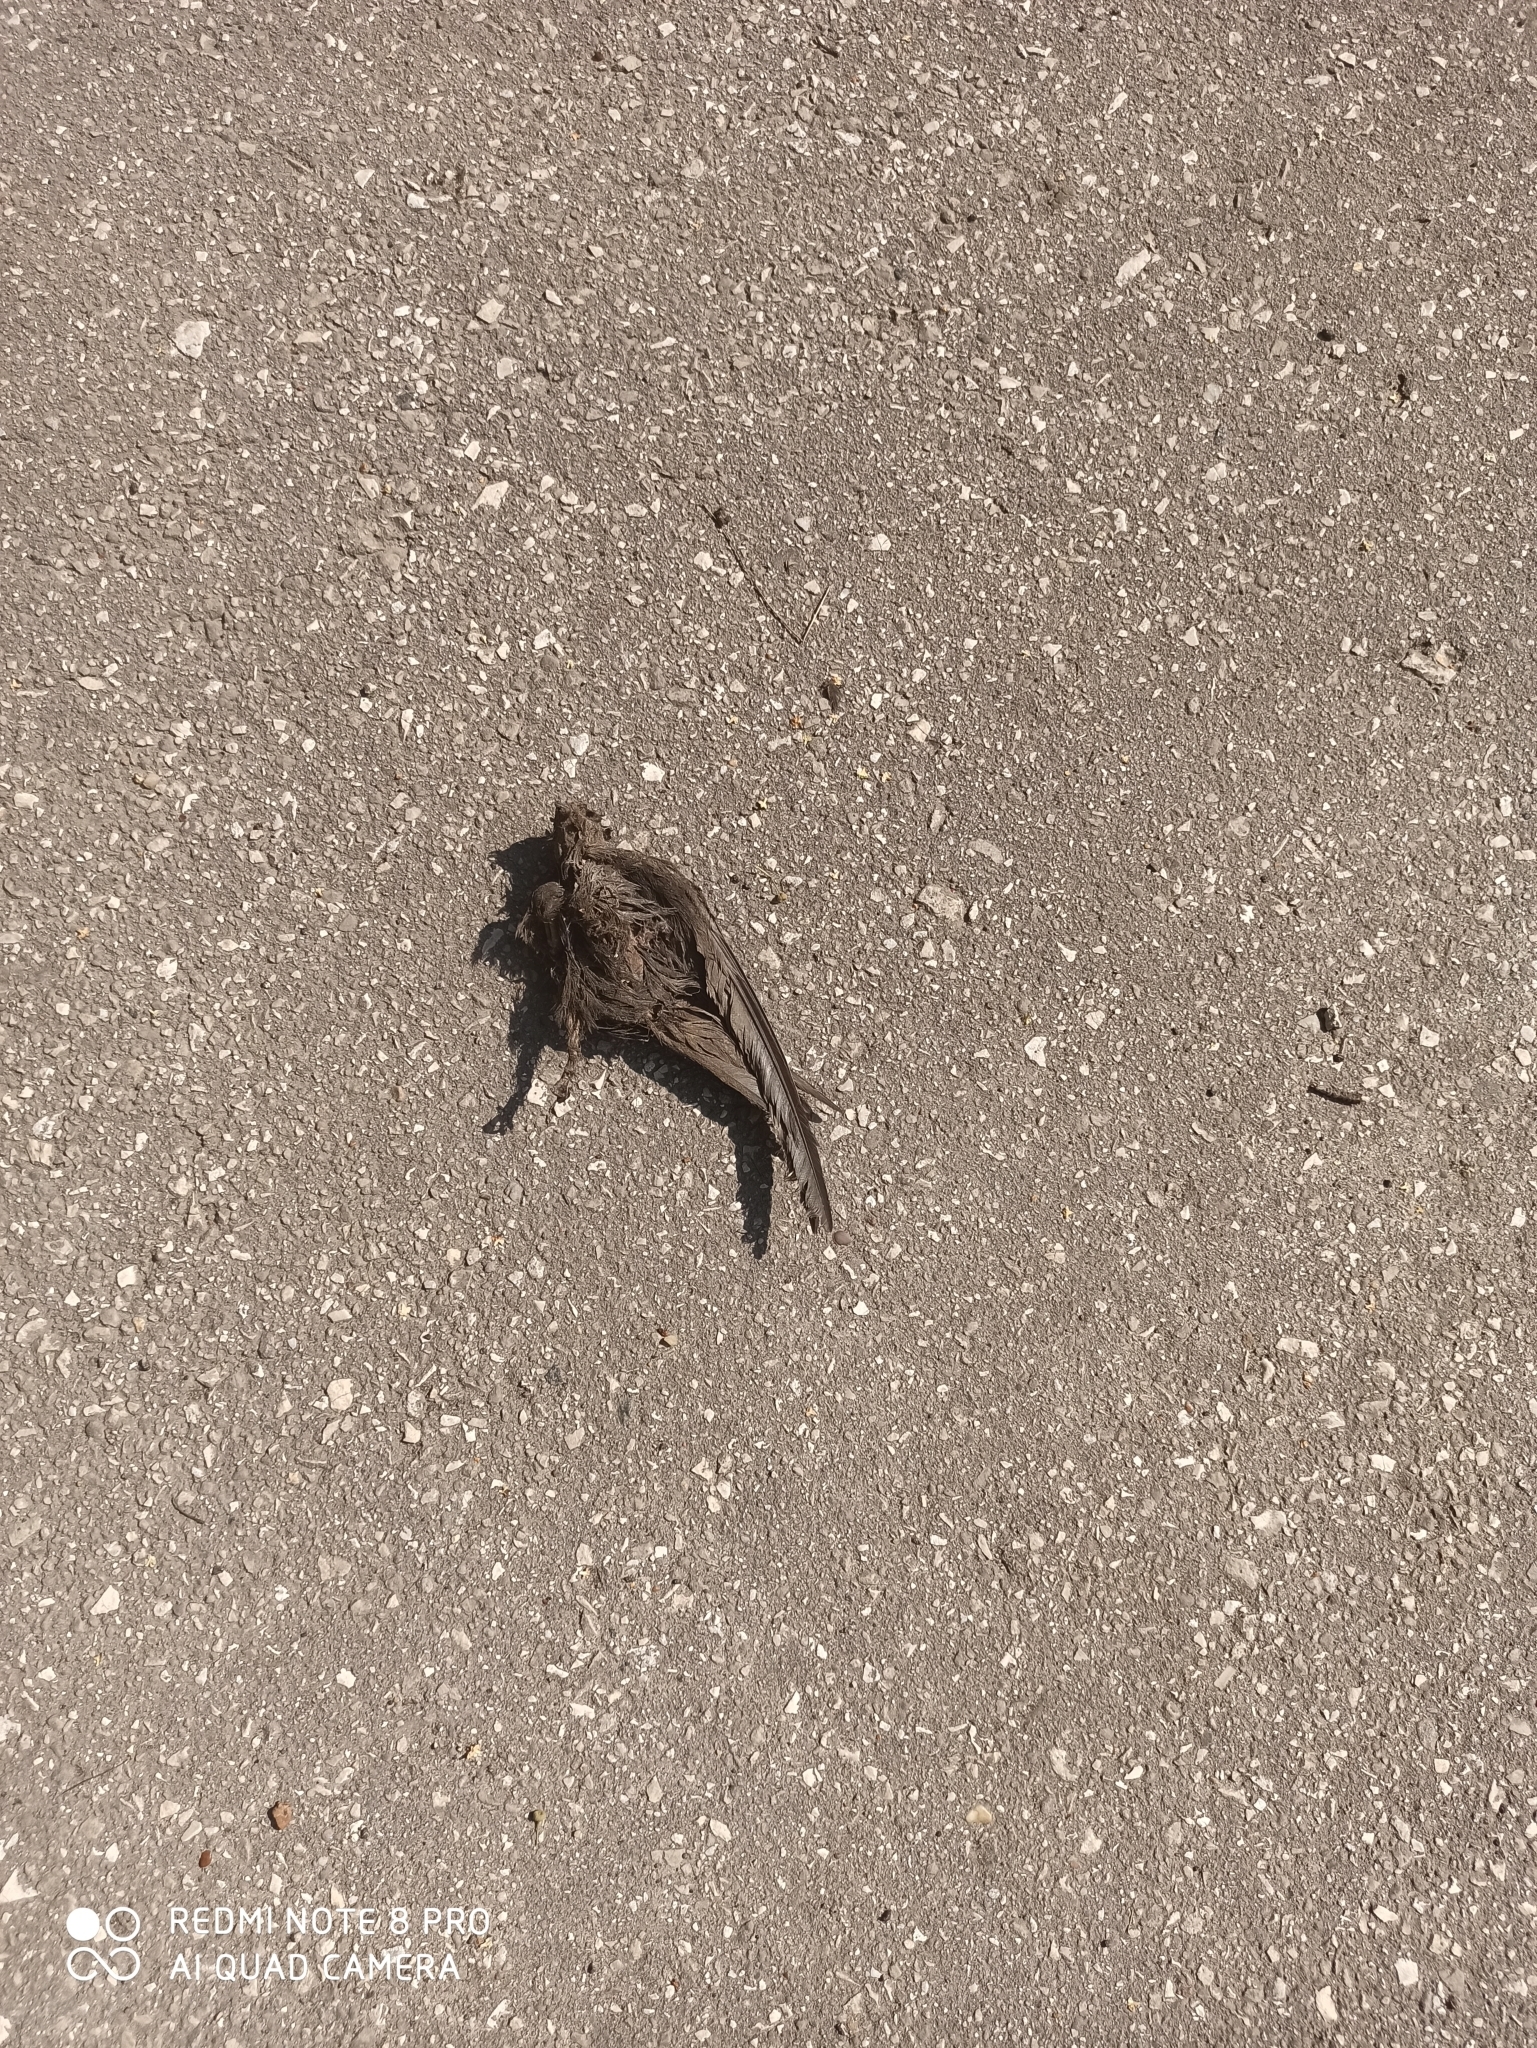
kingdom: Animalia
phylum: Chordata
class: Aves
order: Apodiformes
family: Apodidae
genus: Apus
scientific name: Apus apus
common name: Common swift
